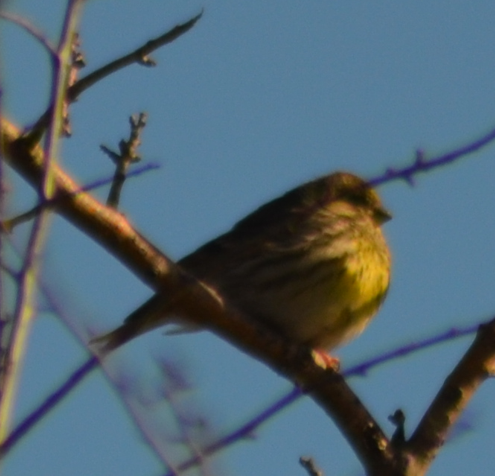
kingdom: Animalia
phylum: Chordata
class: Aves
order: Passeriformes
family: Fringillidae
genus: Serinus
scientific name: Serinus serinus
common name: European serin
